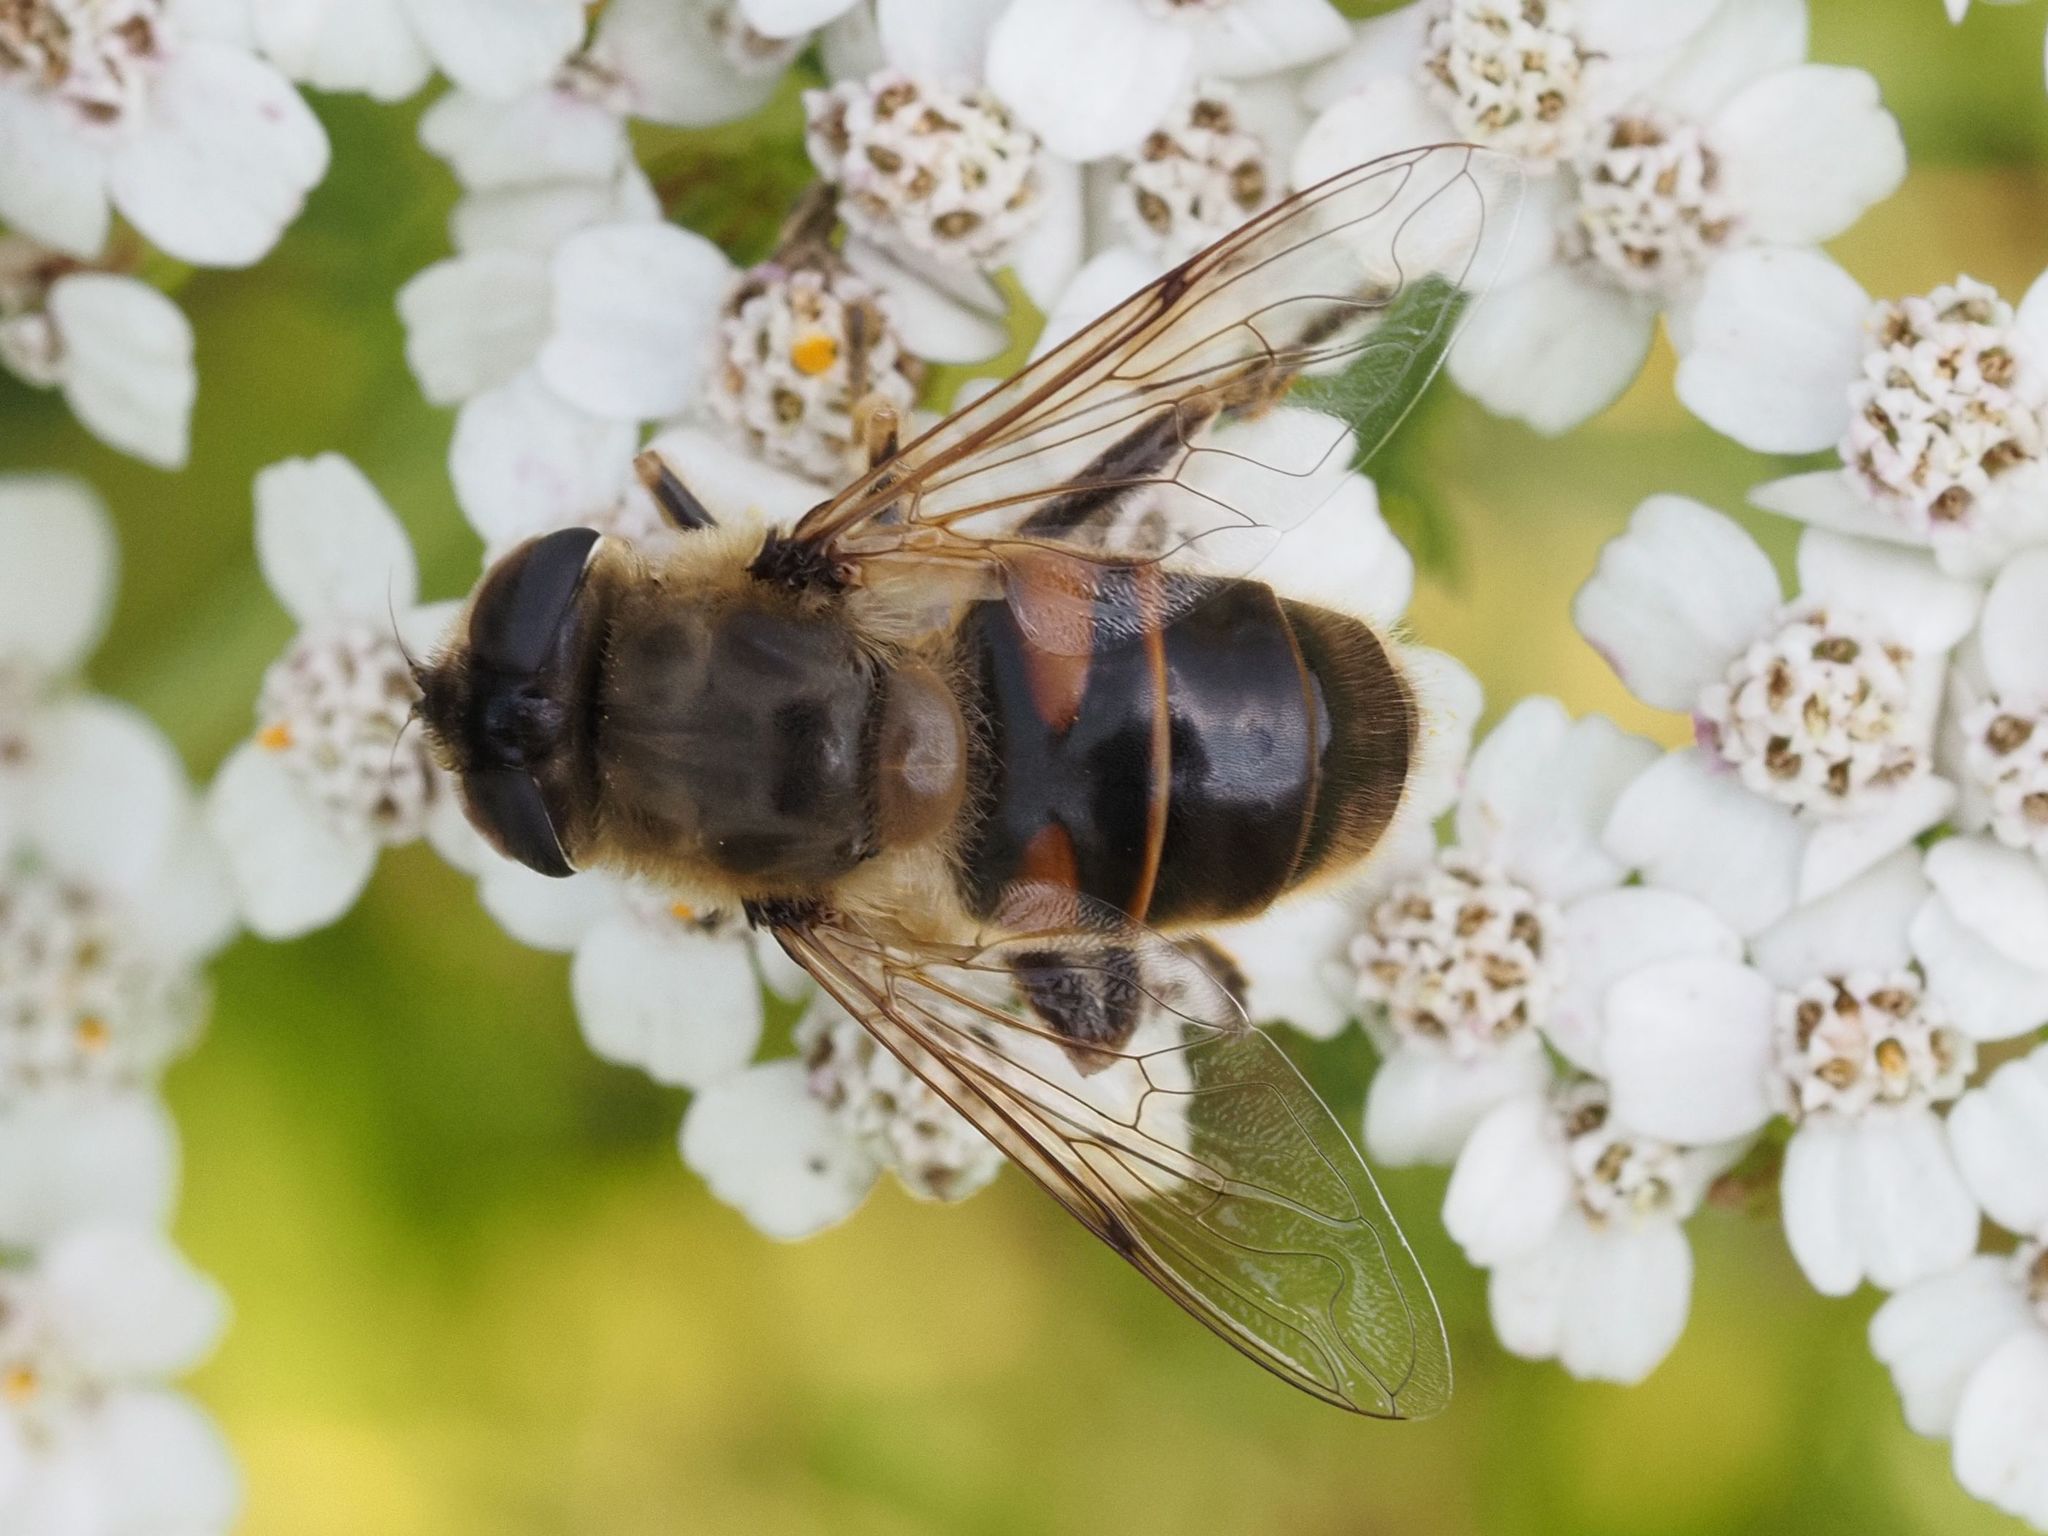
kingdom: Animalia
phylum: Arthropoda
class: Insecta
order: Diptera
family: Syrphidae
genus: Eristalis
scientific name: Eristalis tenax
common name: Drone fly
